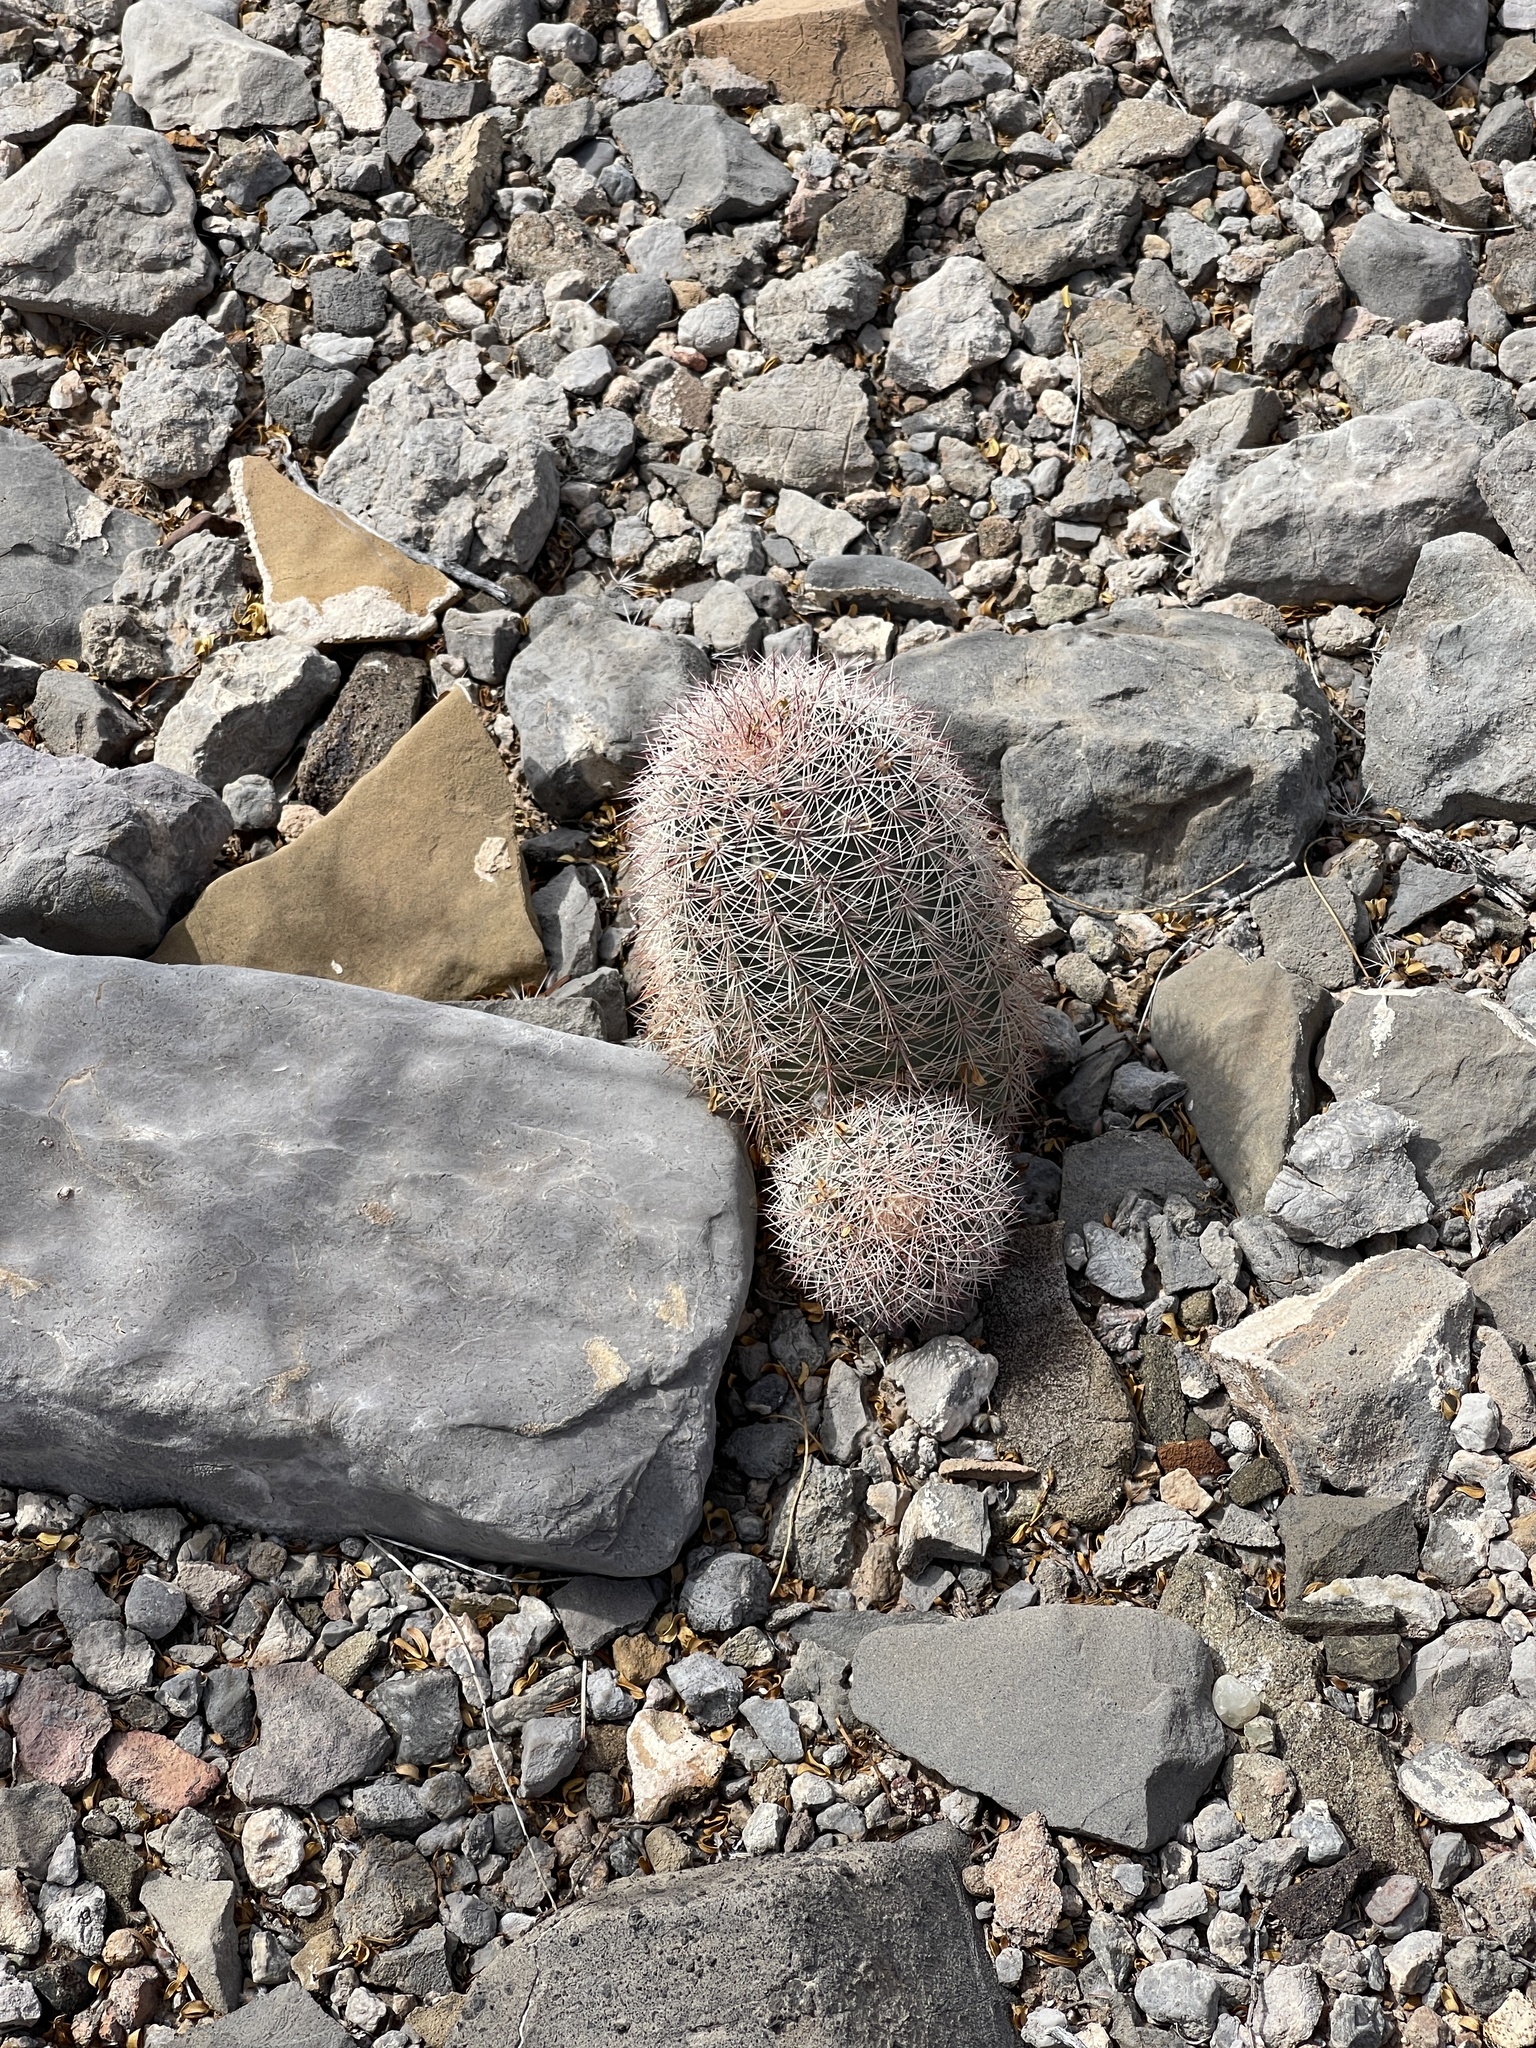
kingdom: Plantae
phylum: Tracheophyta
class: Magnoliopsida
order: Caryophyllales
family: Cactaceae
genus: Echinocereus
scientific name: Echinocereus dasyacanthus
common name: Spiny hedgehog cactus
